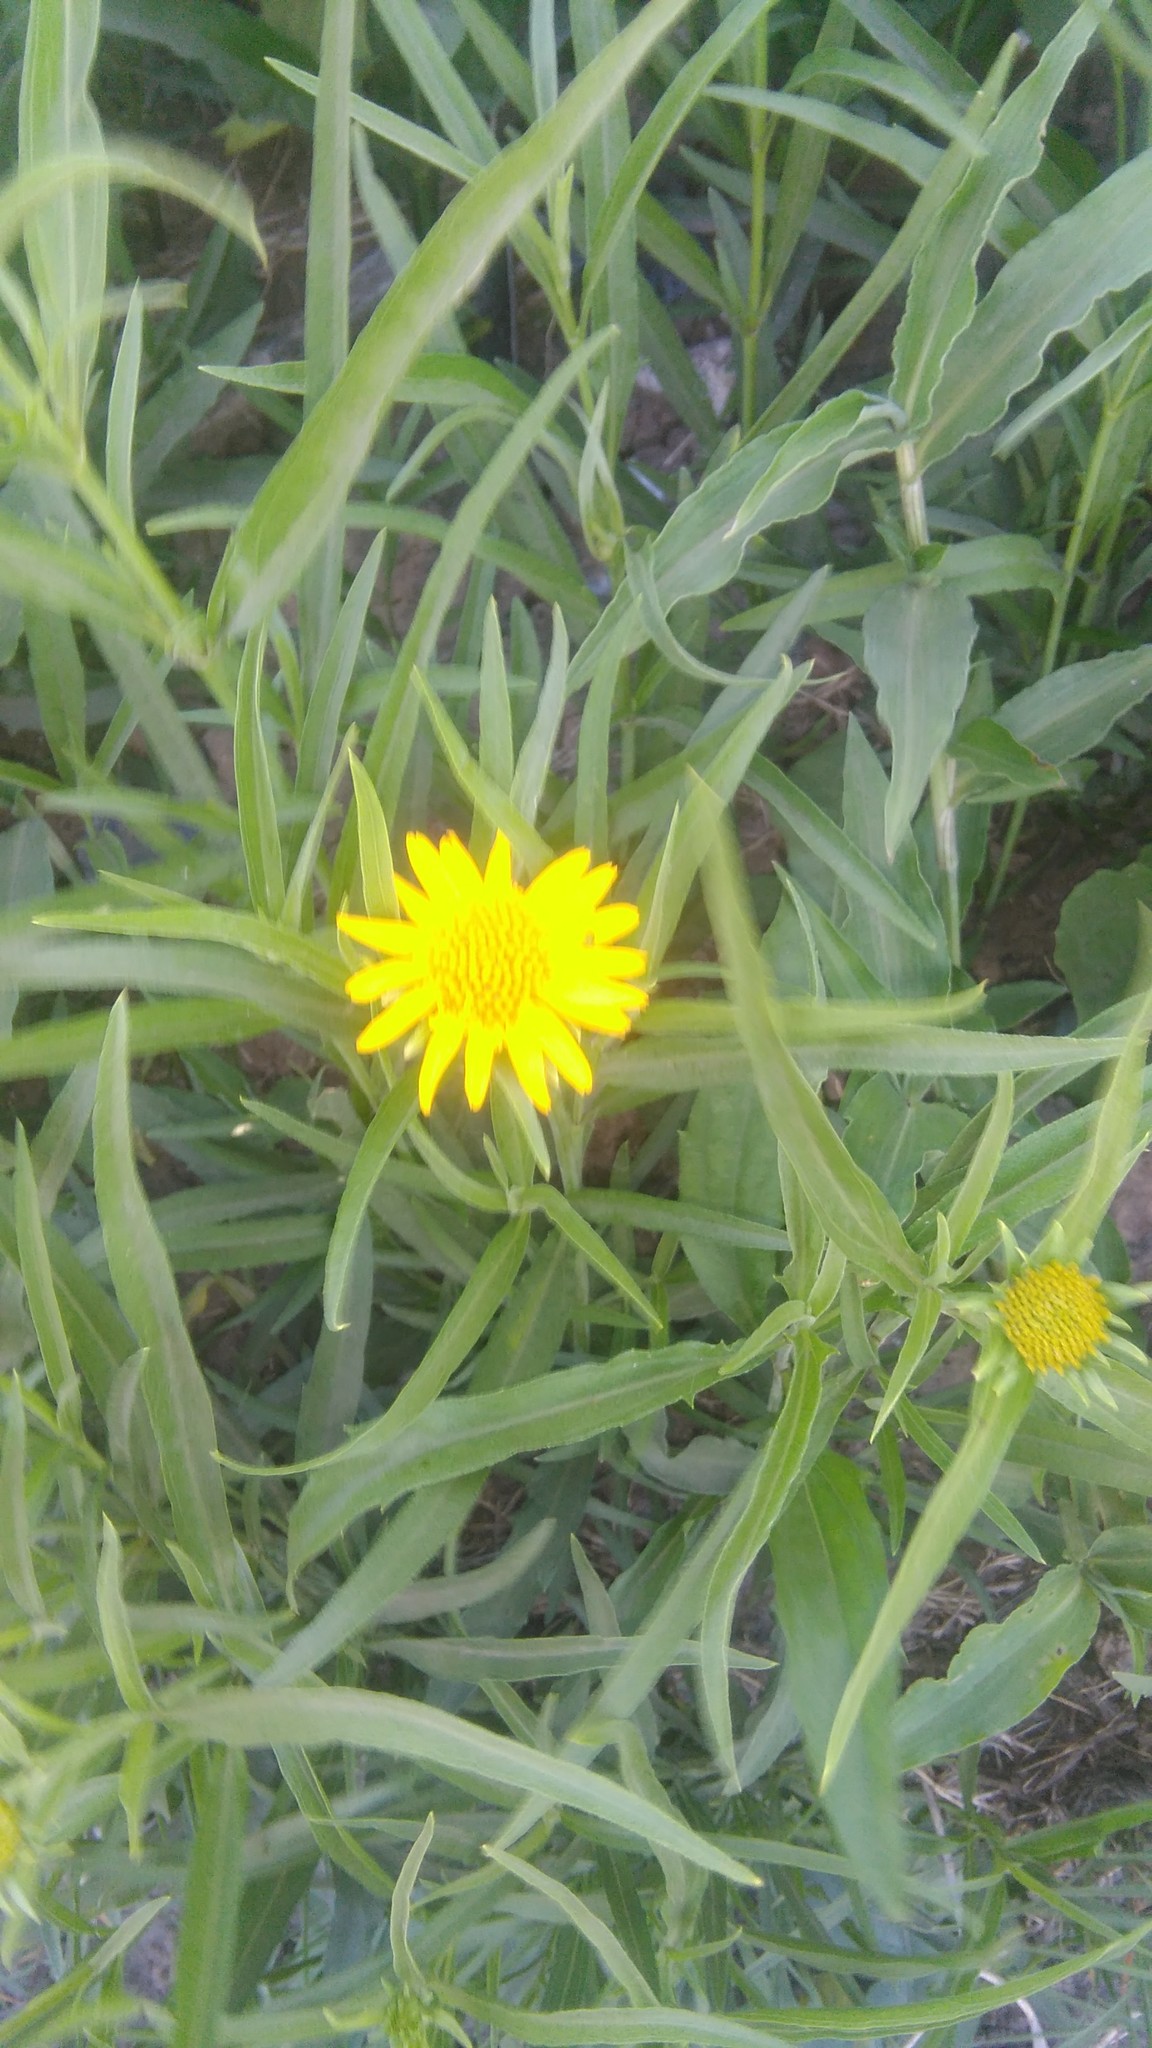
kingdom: Plantae
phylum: Tracheophyta
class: Magnoliopsida
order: Asterales
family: Asteraceae
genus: Pascalia
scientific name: Pascalia glauca
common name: Beach creeping oxeye
